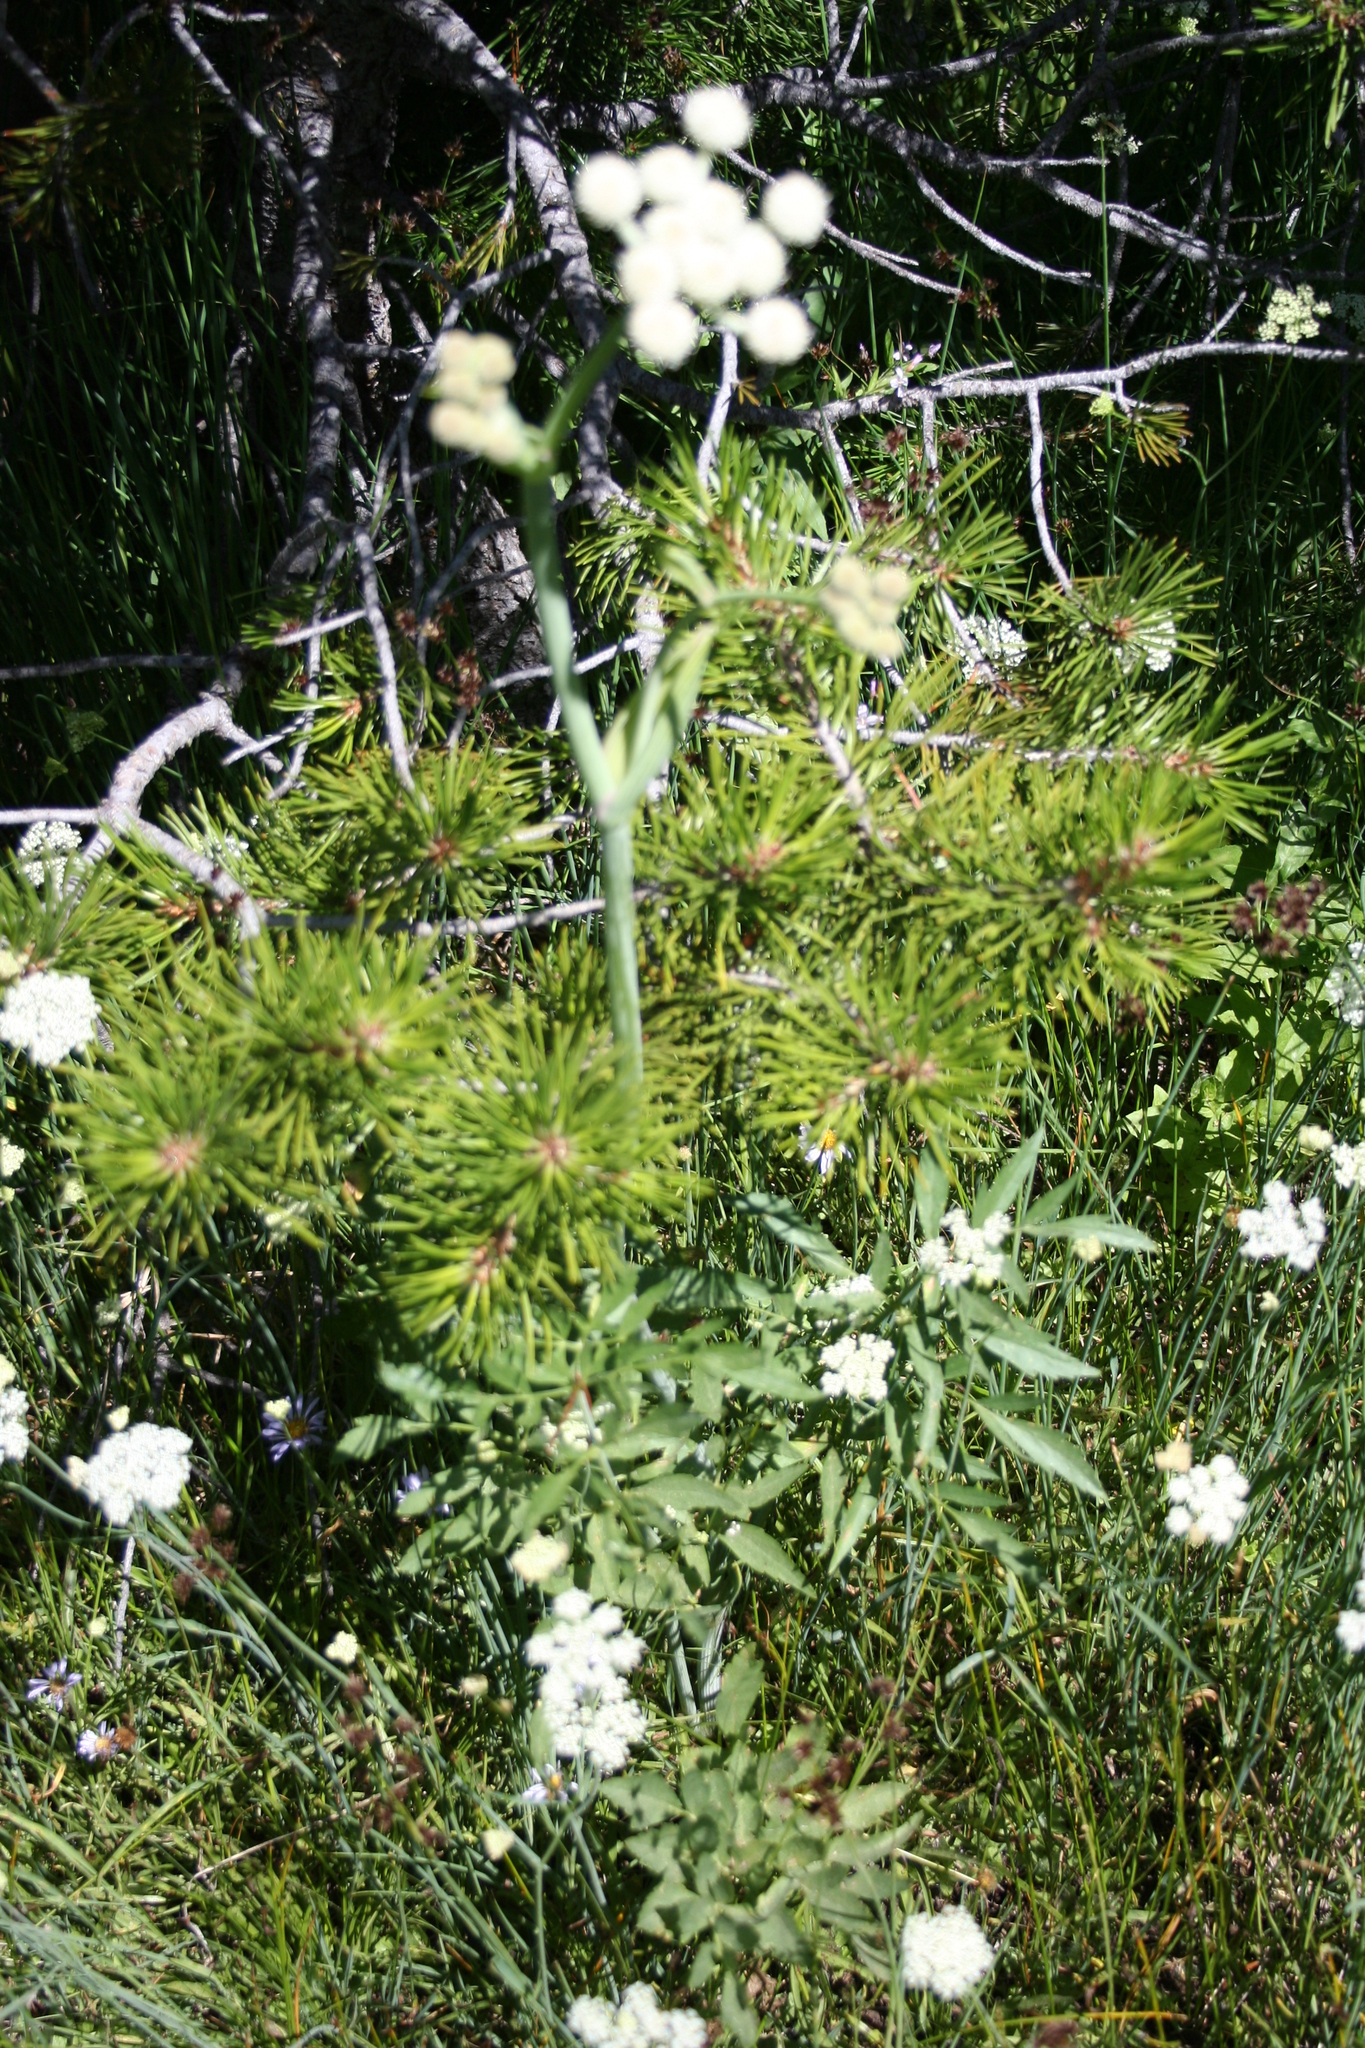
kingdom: Plantae
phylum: Tracheophyta
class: Magnoliopsida
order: Apiales
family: Apiaceae
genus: Angelica
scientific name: Angelica capitellata
